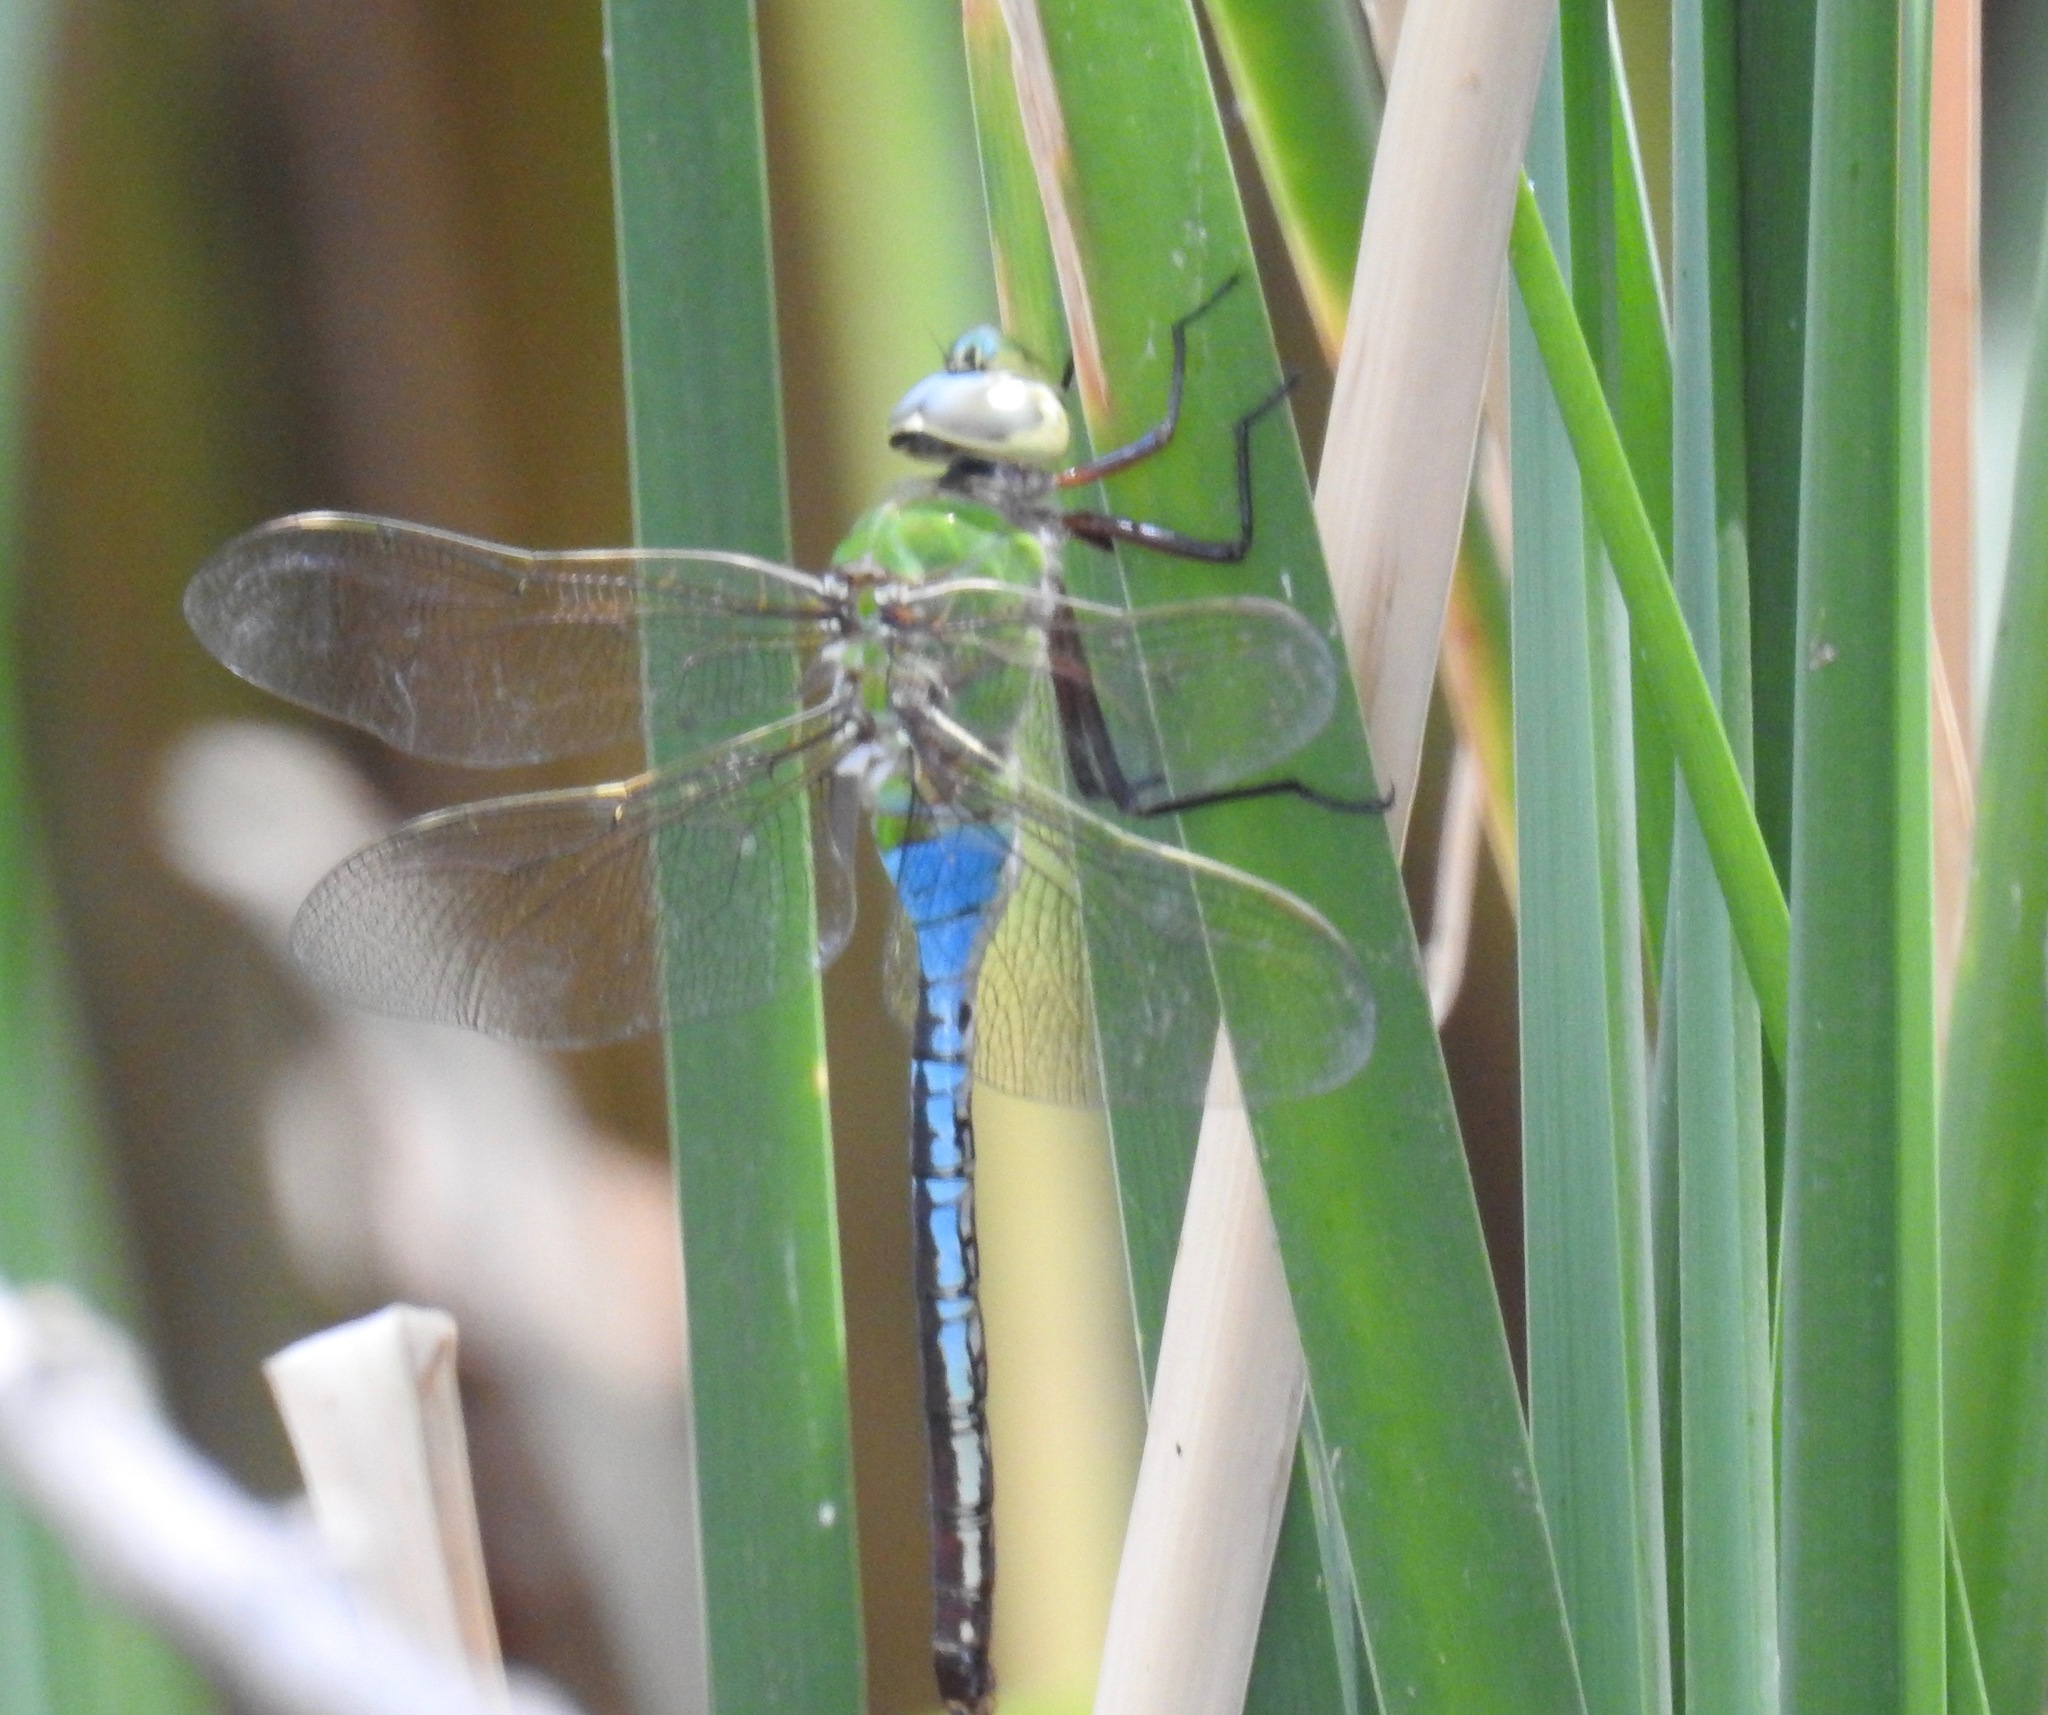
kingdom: Animalia
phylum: Arthropoda
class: Insecta
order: Odonata
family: Aeshnidae
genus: Anax
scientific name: Anax junius
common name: Common green darner
